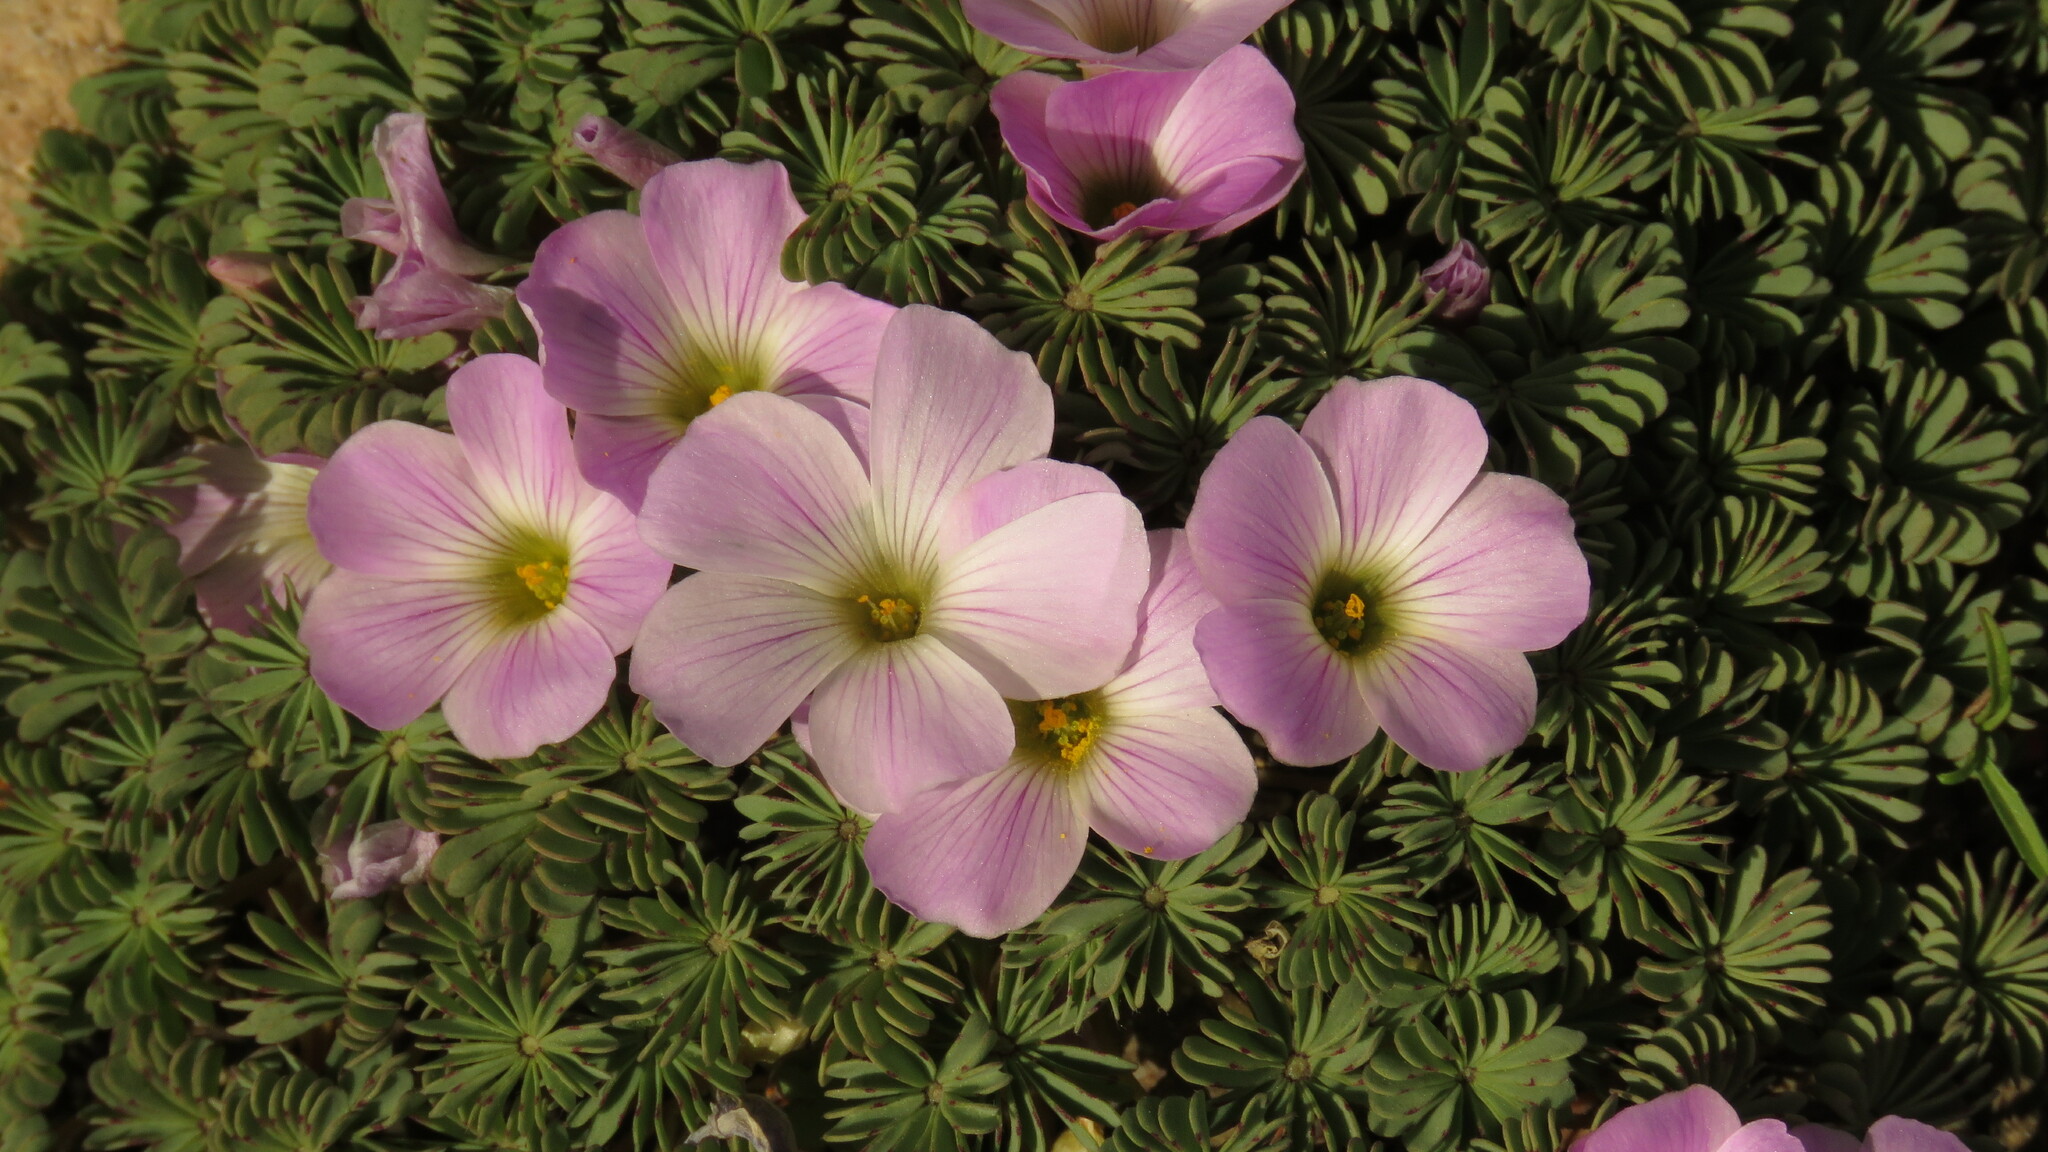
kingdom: Plantae
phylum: Tracheophyta
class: Magnoliopsida
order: Oxalidales
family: Oxalidaceae
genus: Oxalis
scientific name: Oxalis adenophylla
